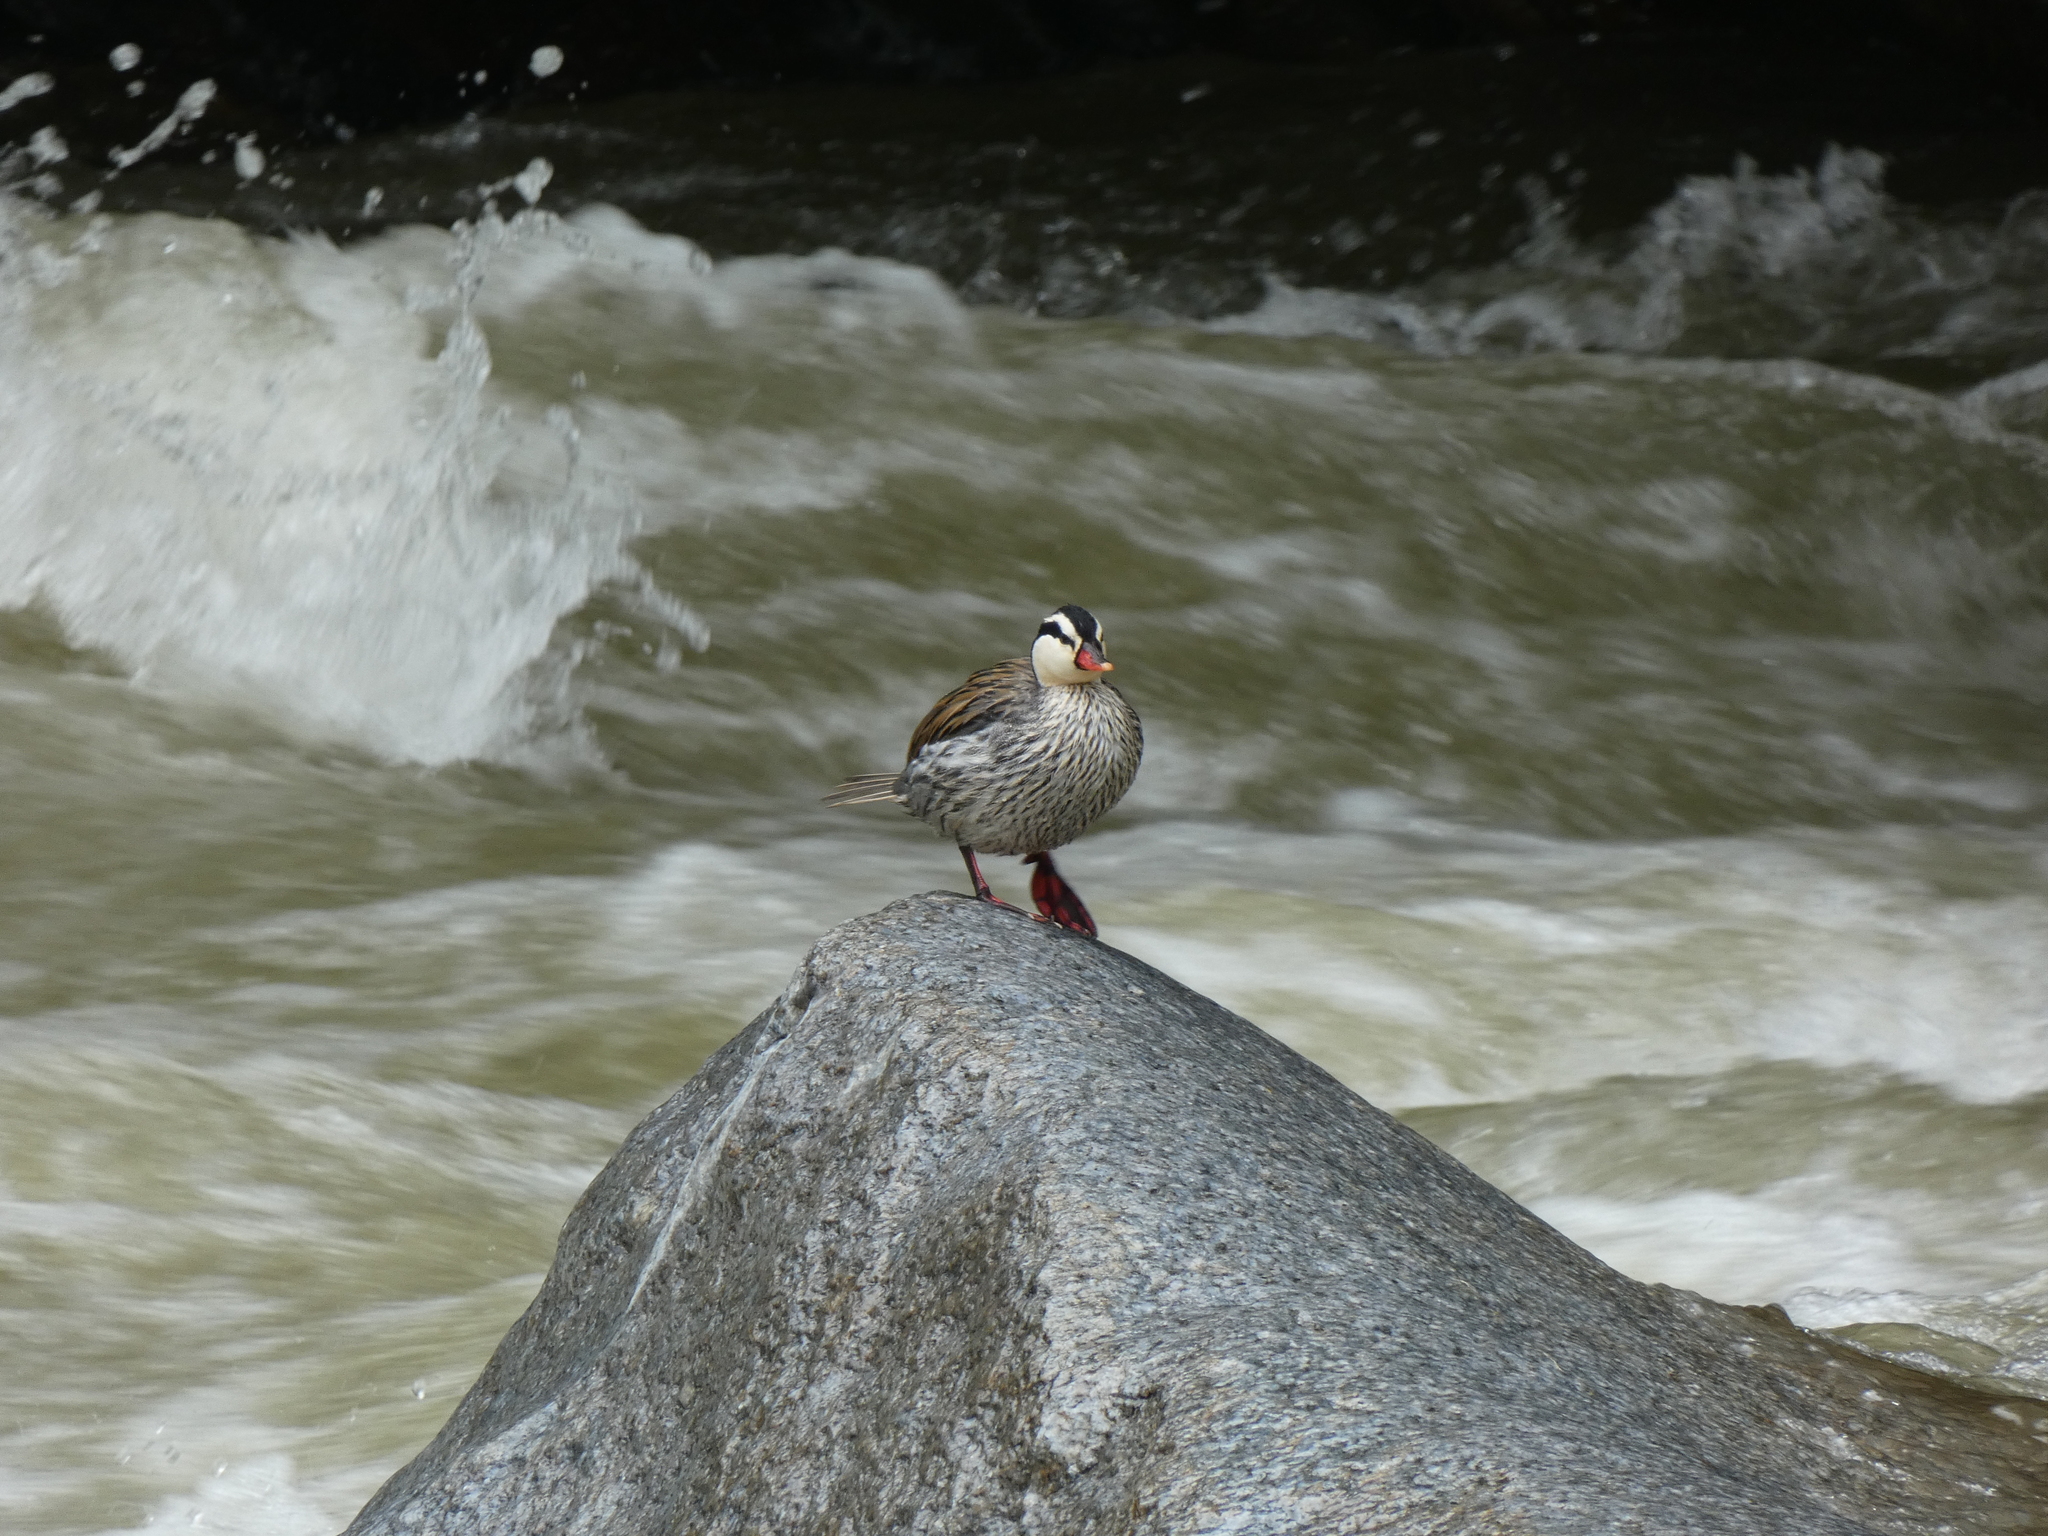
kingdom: Animalia
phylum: Chordata
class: Aves
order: Anseriformes
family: Anatidae
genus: Merganetta
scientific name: Merganetta armata
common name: Torrent duck
